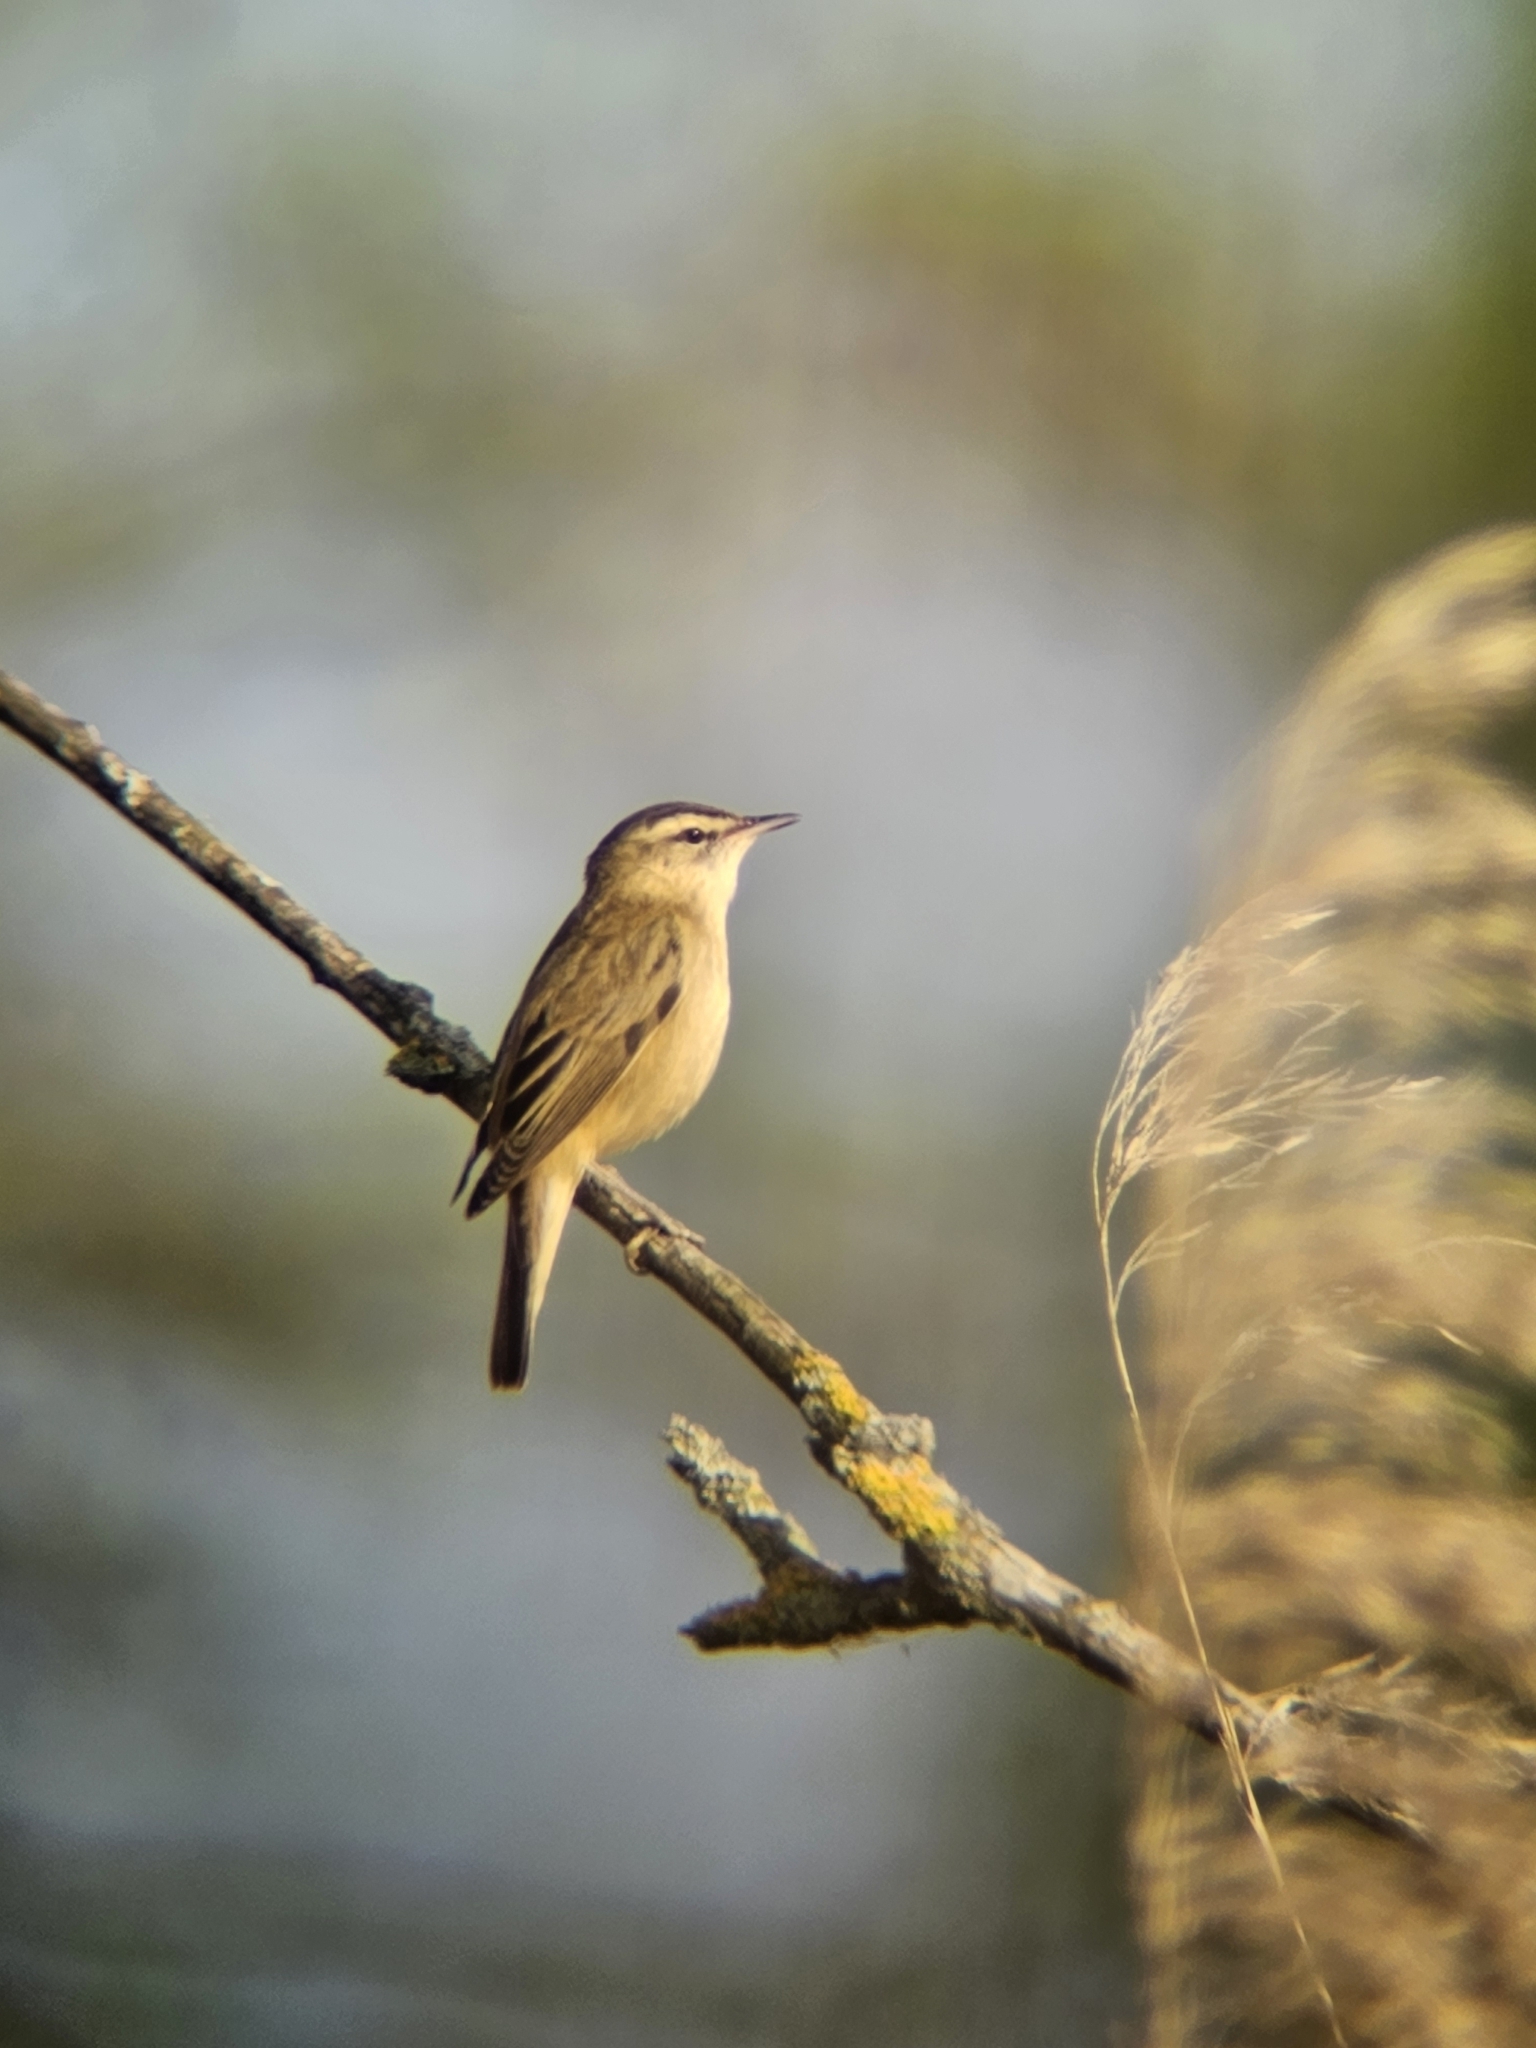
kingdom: Animalia
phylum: Chordata
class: Aves
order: Passeriformes
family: Acrocephalidae
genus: Acrocephalus
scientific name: Acrocephalus schoenobaenus
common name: Sedge warbler
